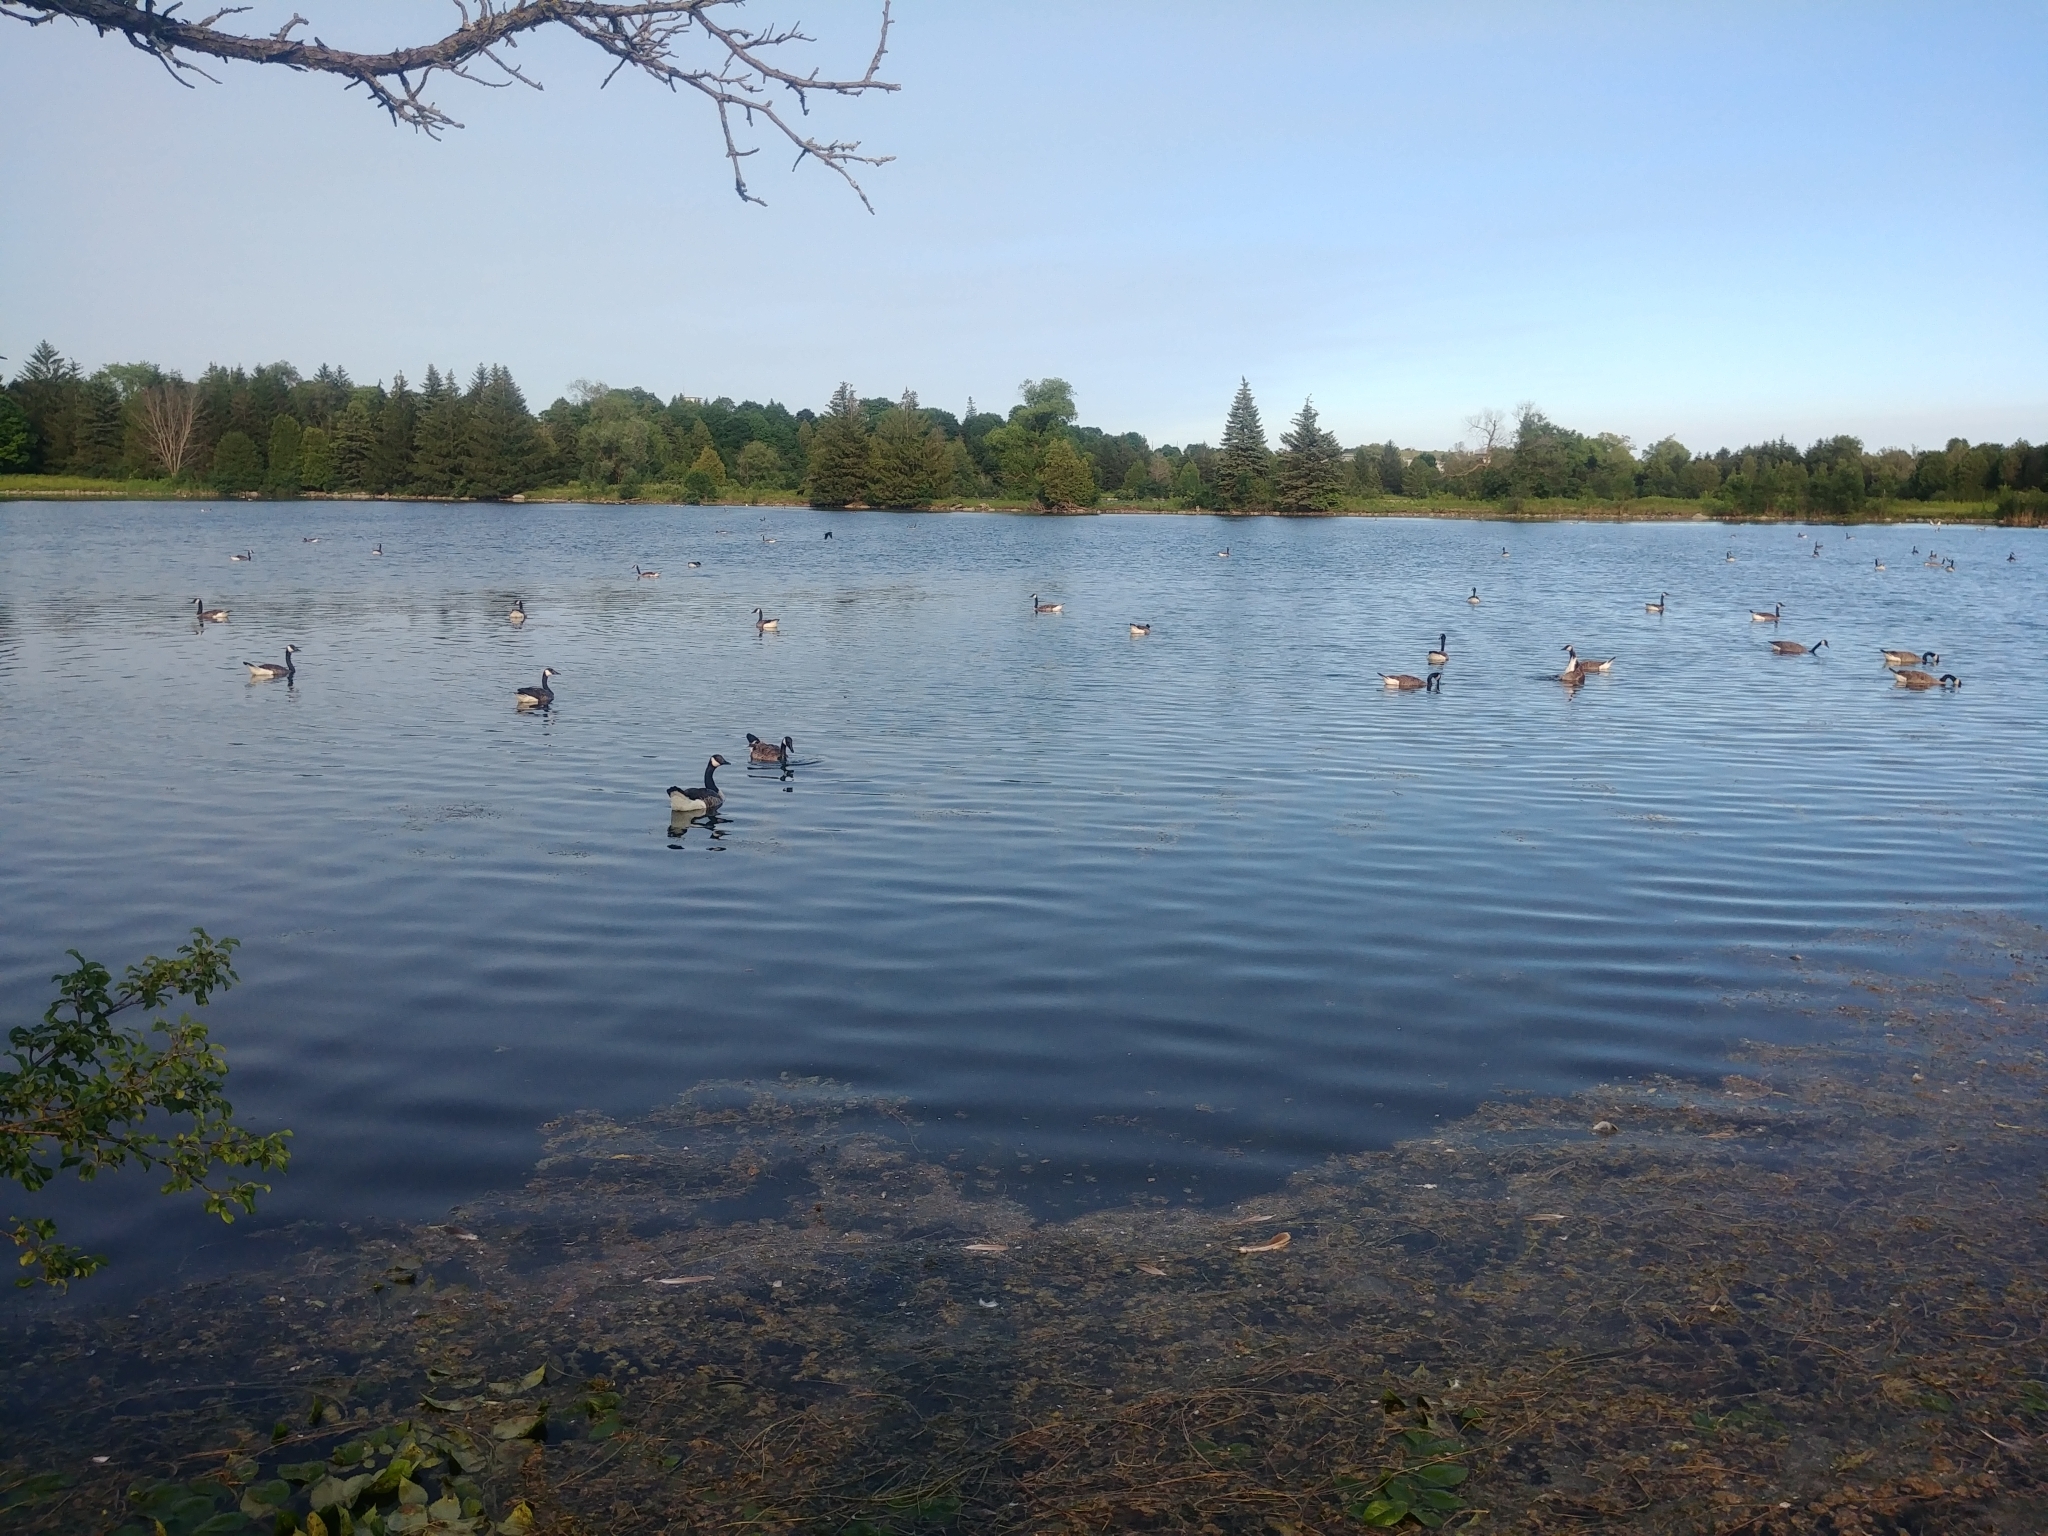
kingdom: Animalia
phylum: Chordata
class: Aves
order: Anseriformes
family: Anatidae
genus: Branta
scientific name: Branta canadensis
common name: Canada goose
